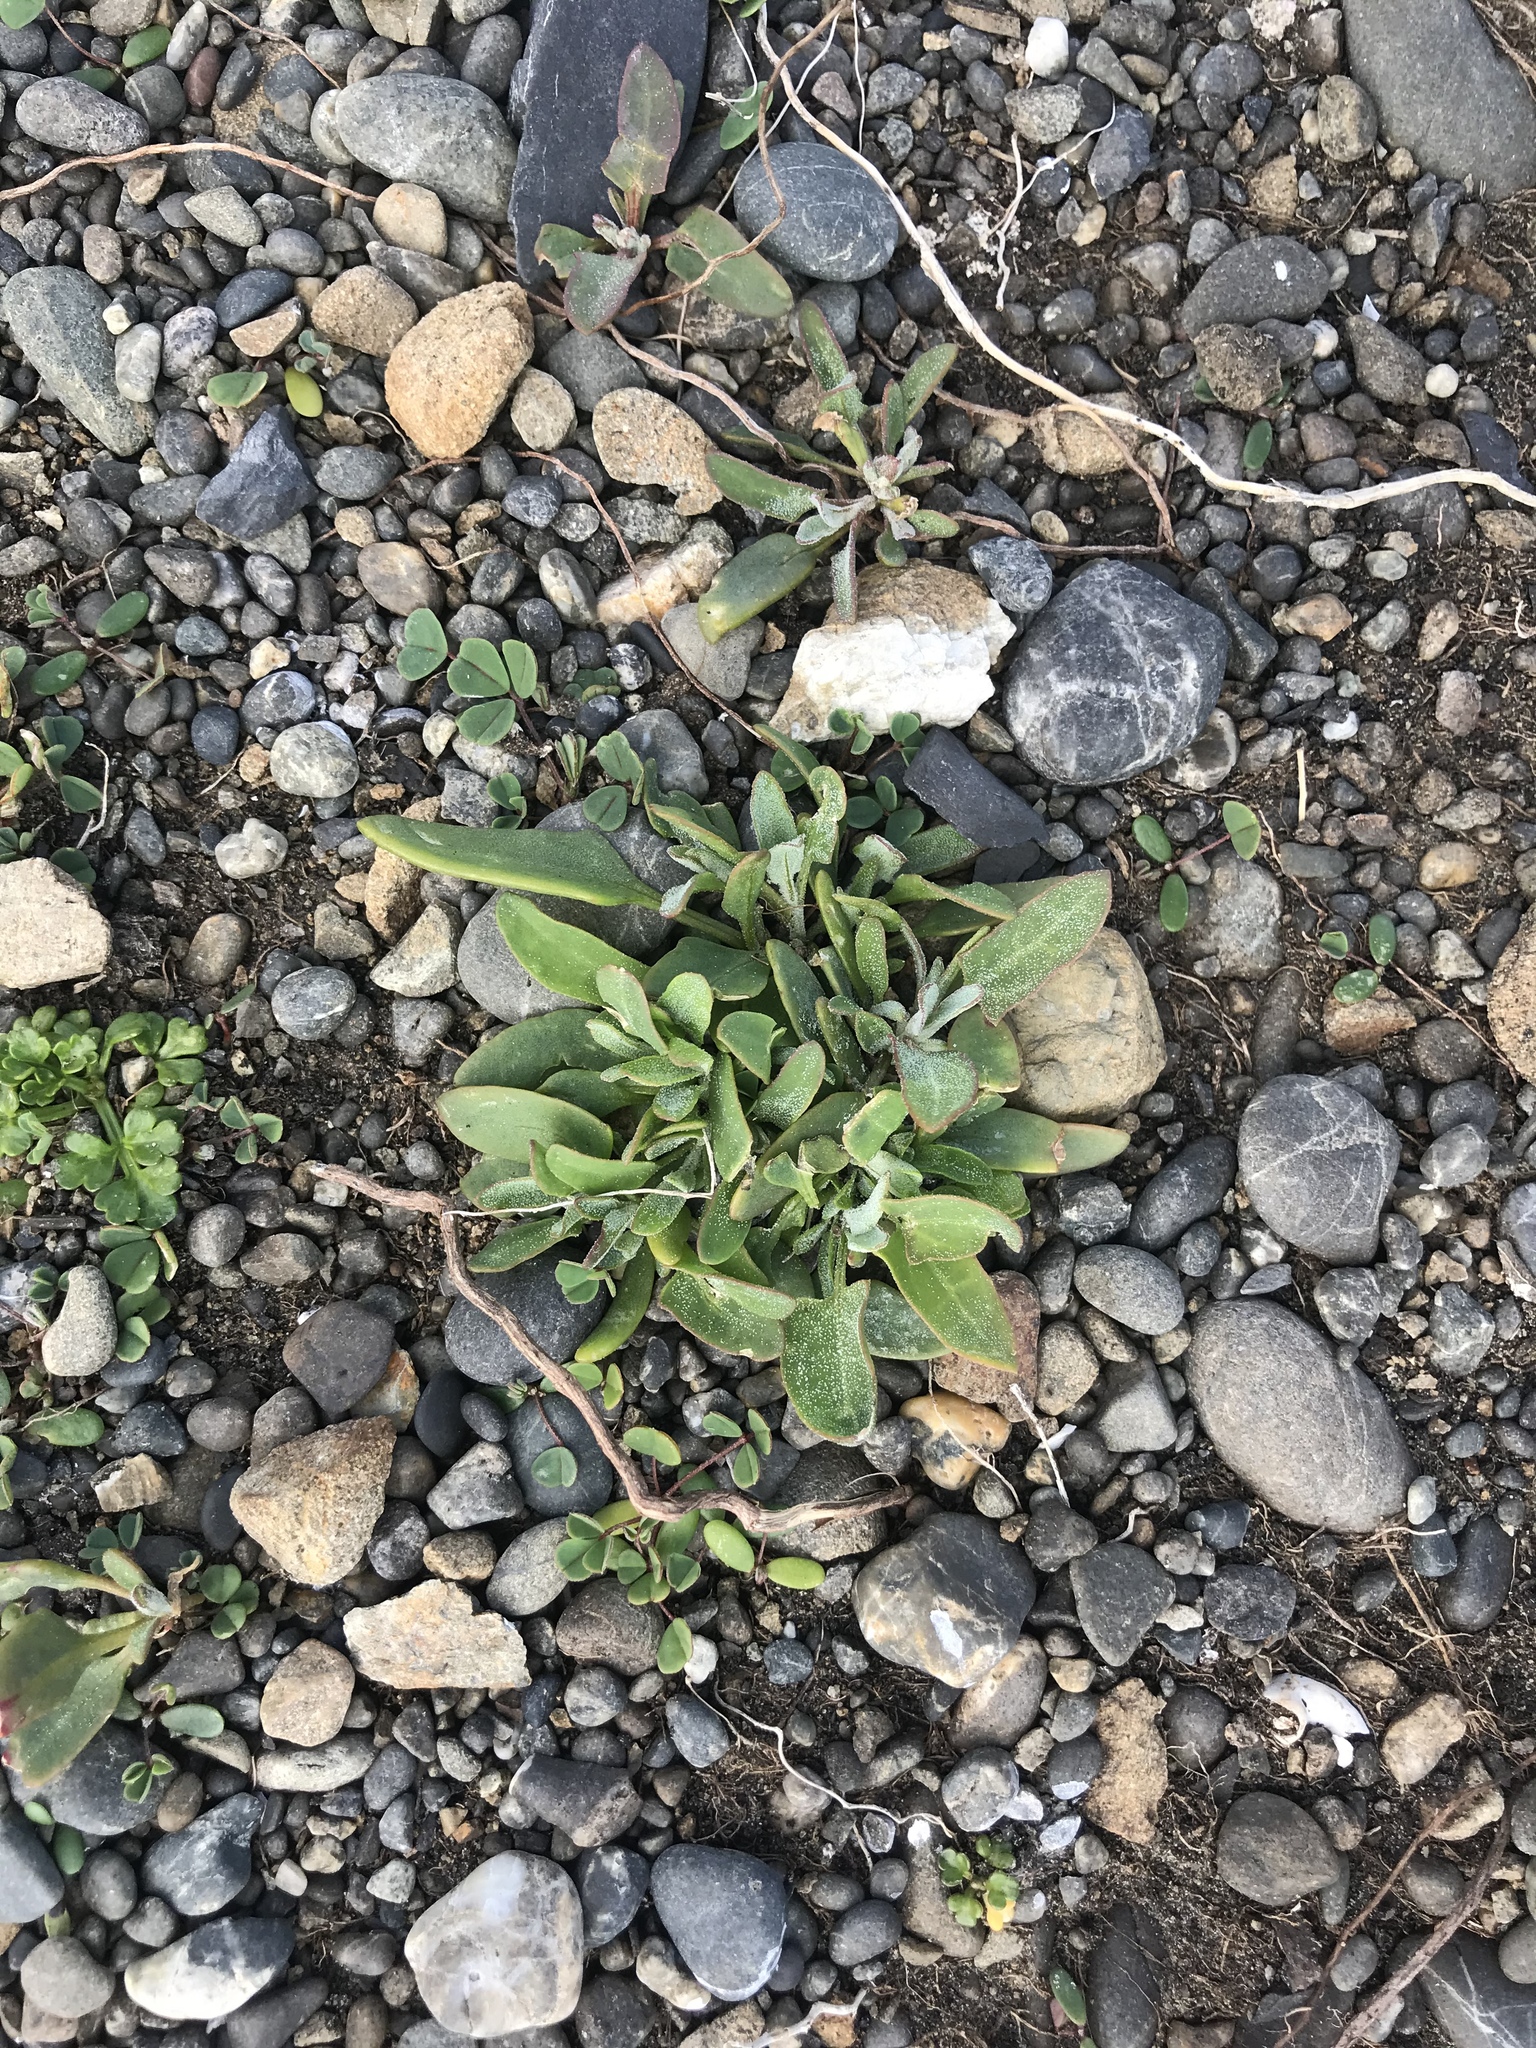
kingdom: Plantae
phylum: Tracheophyta
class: Magnoliopsida
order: Caryophyllales
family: Amaranthaceae
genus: Atriplex
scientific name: Atriplex prostrata
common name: Spear-leaved orache
